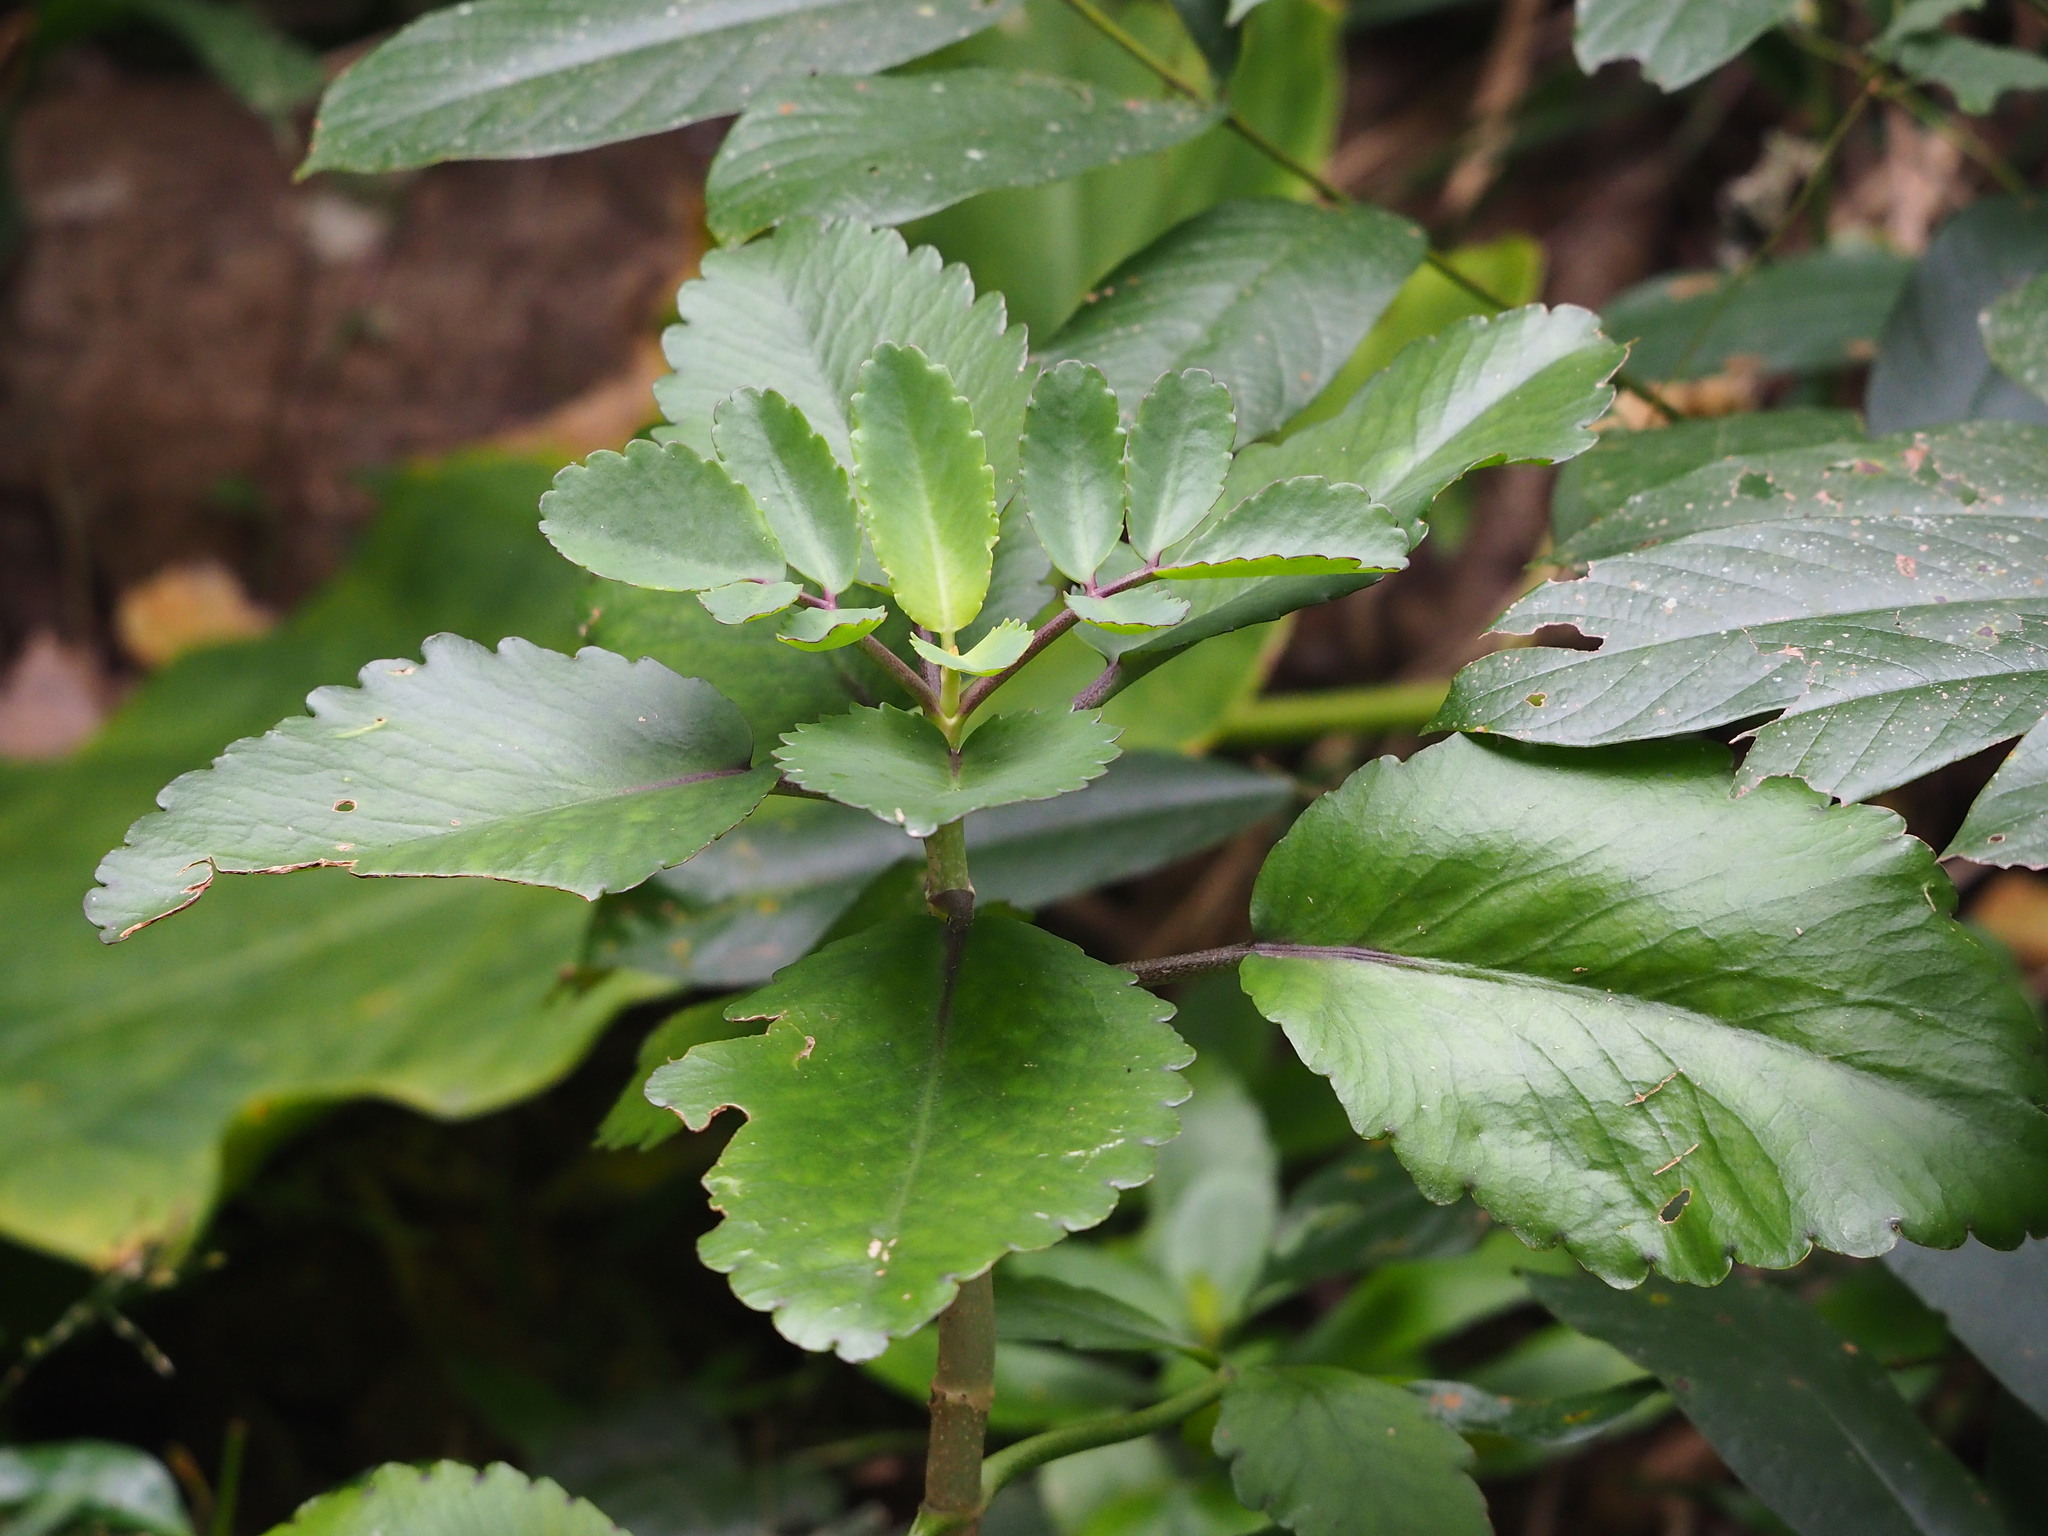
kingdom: Plantae
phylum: Tracheophyta
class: Magnoliopsida
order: Saxifragales
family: Crassulaceae
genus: Kalanchoe
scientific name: Kalanchoe pinnata
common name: Cathedral bells
